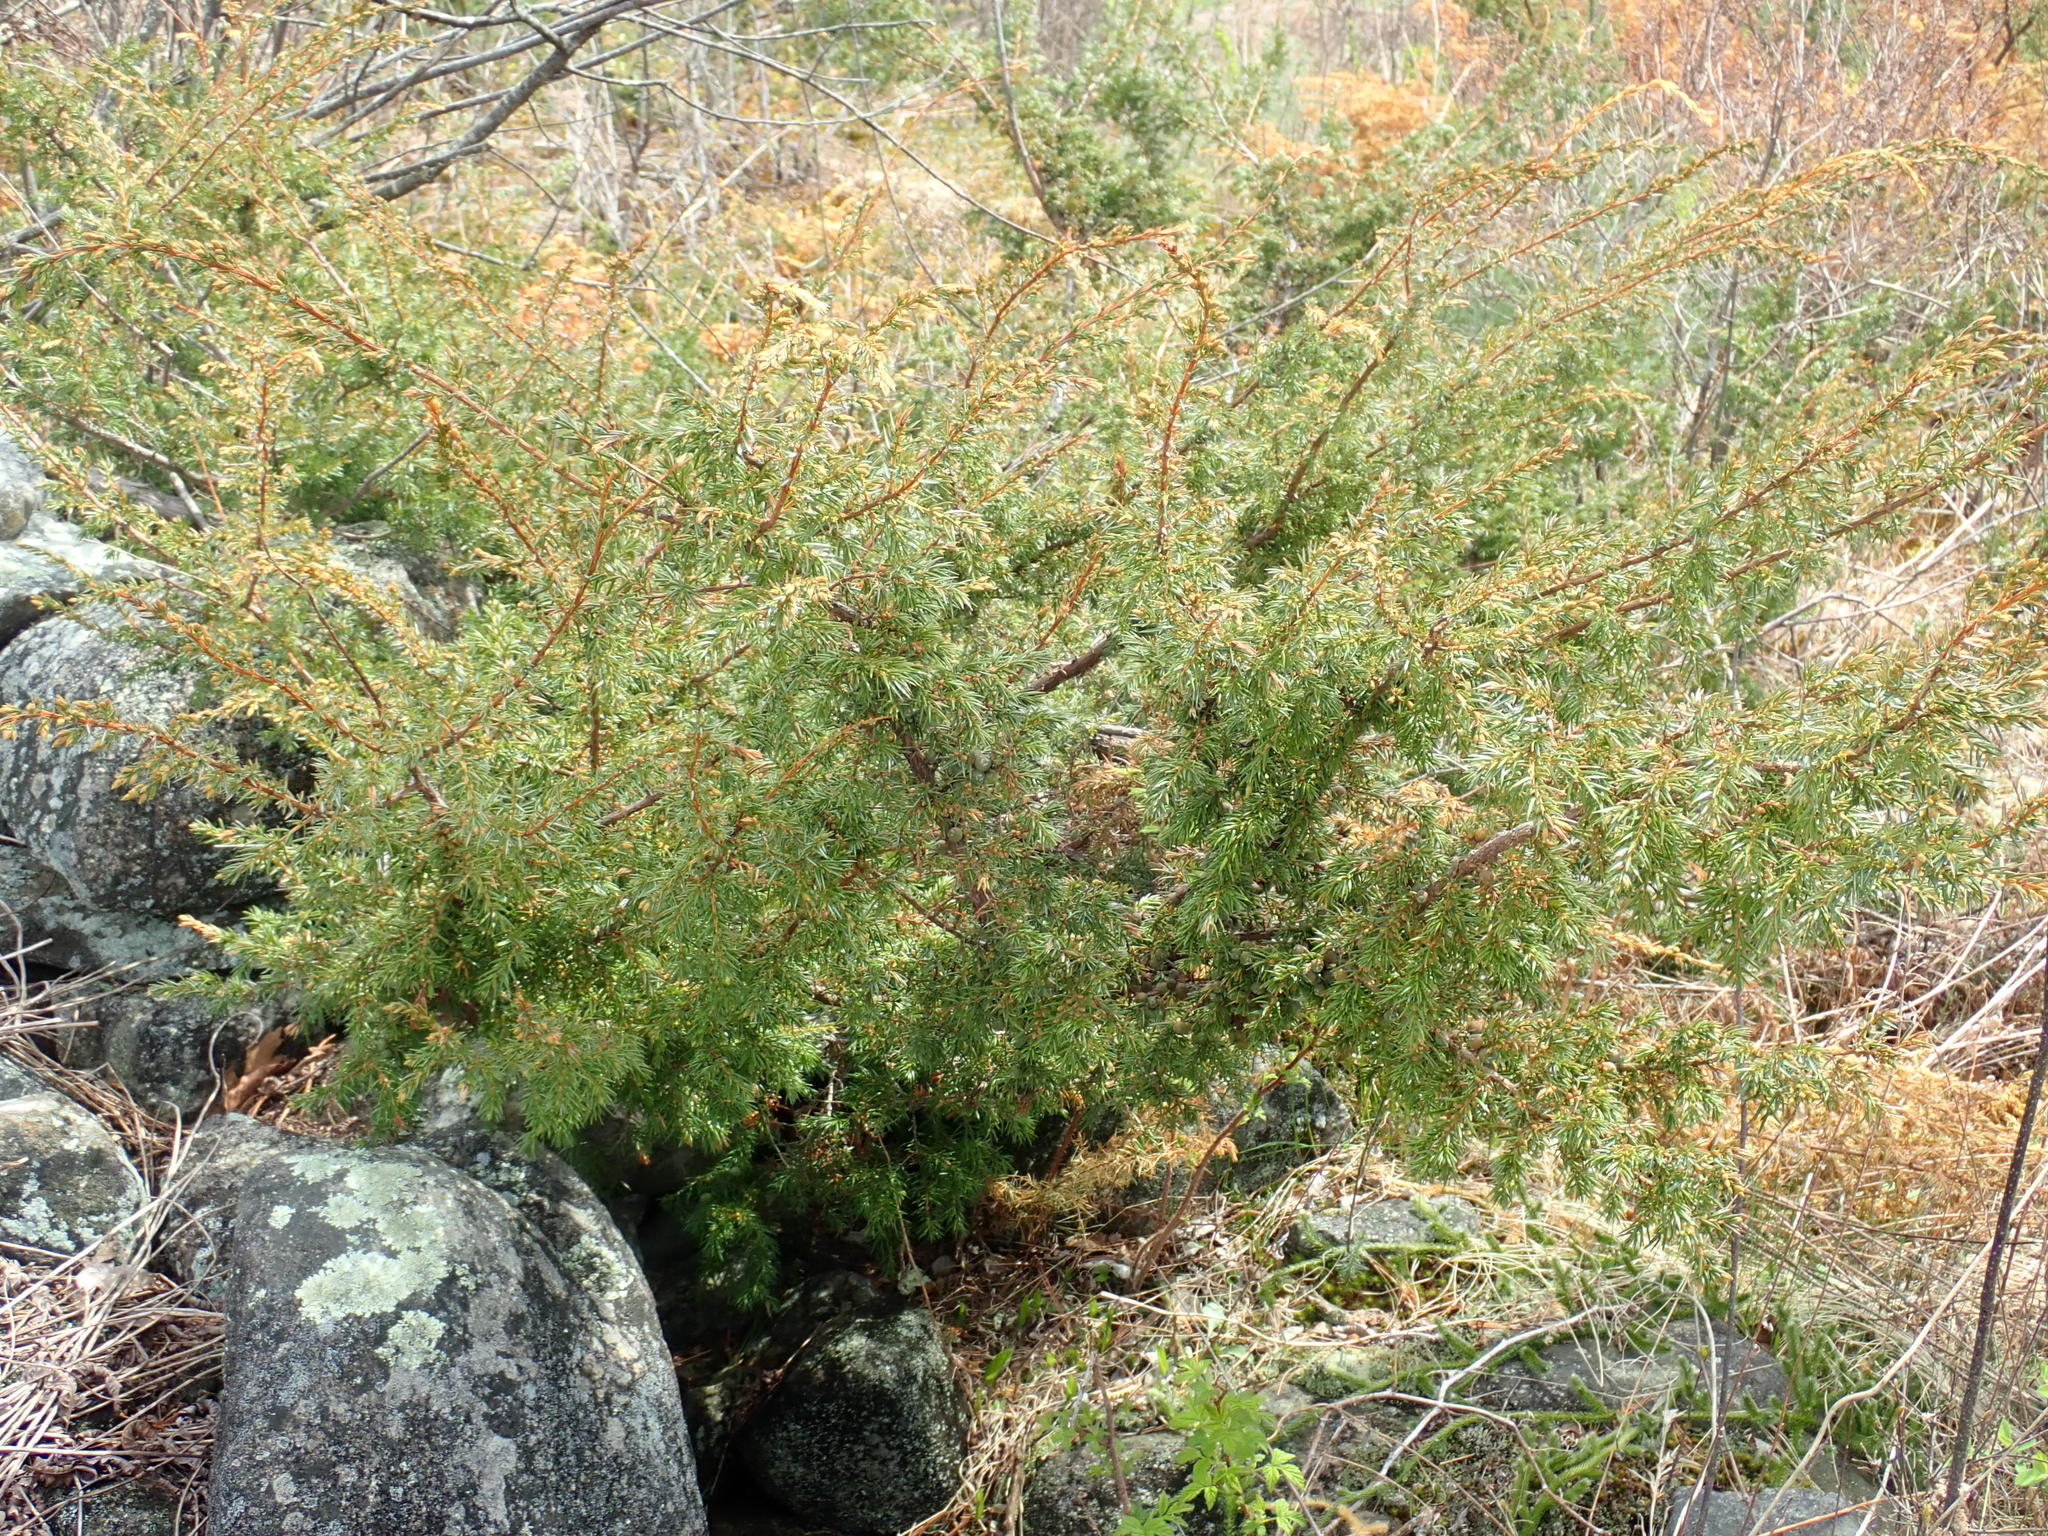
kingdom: Plantae
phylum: Tracheophyta
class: Pinopsida
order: Pinales
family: Cupressaceae
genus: Juniperus
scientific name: Juniperus communis
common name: Common juniper
